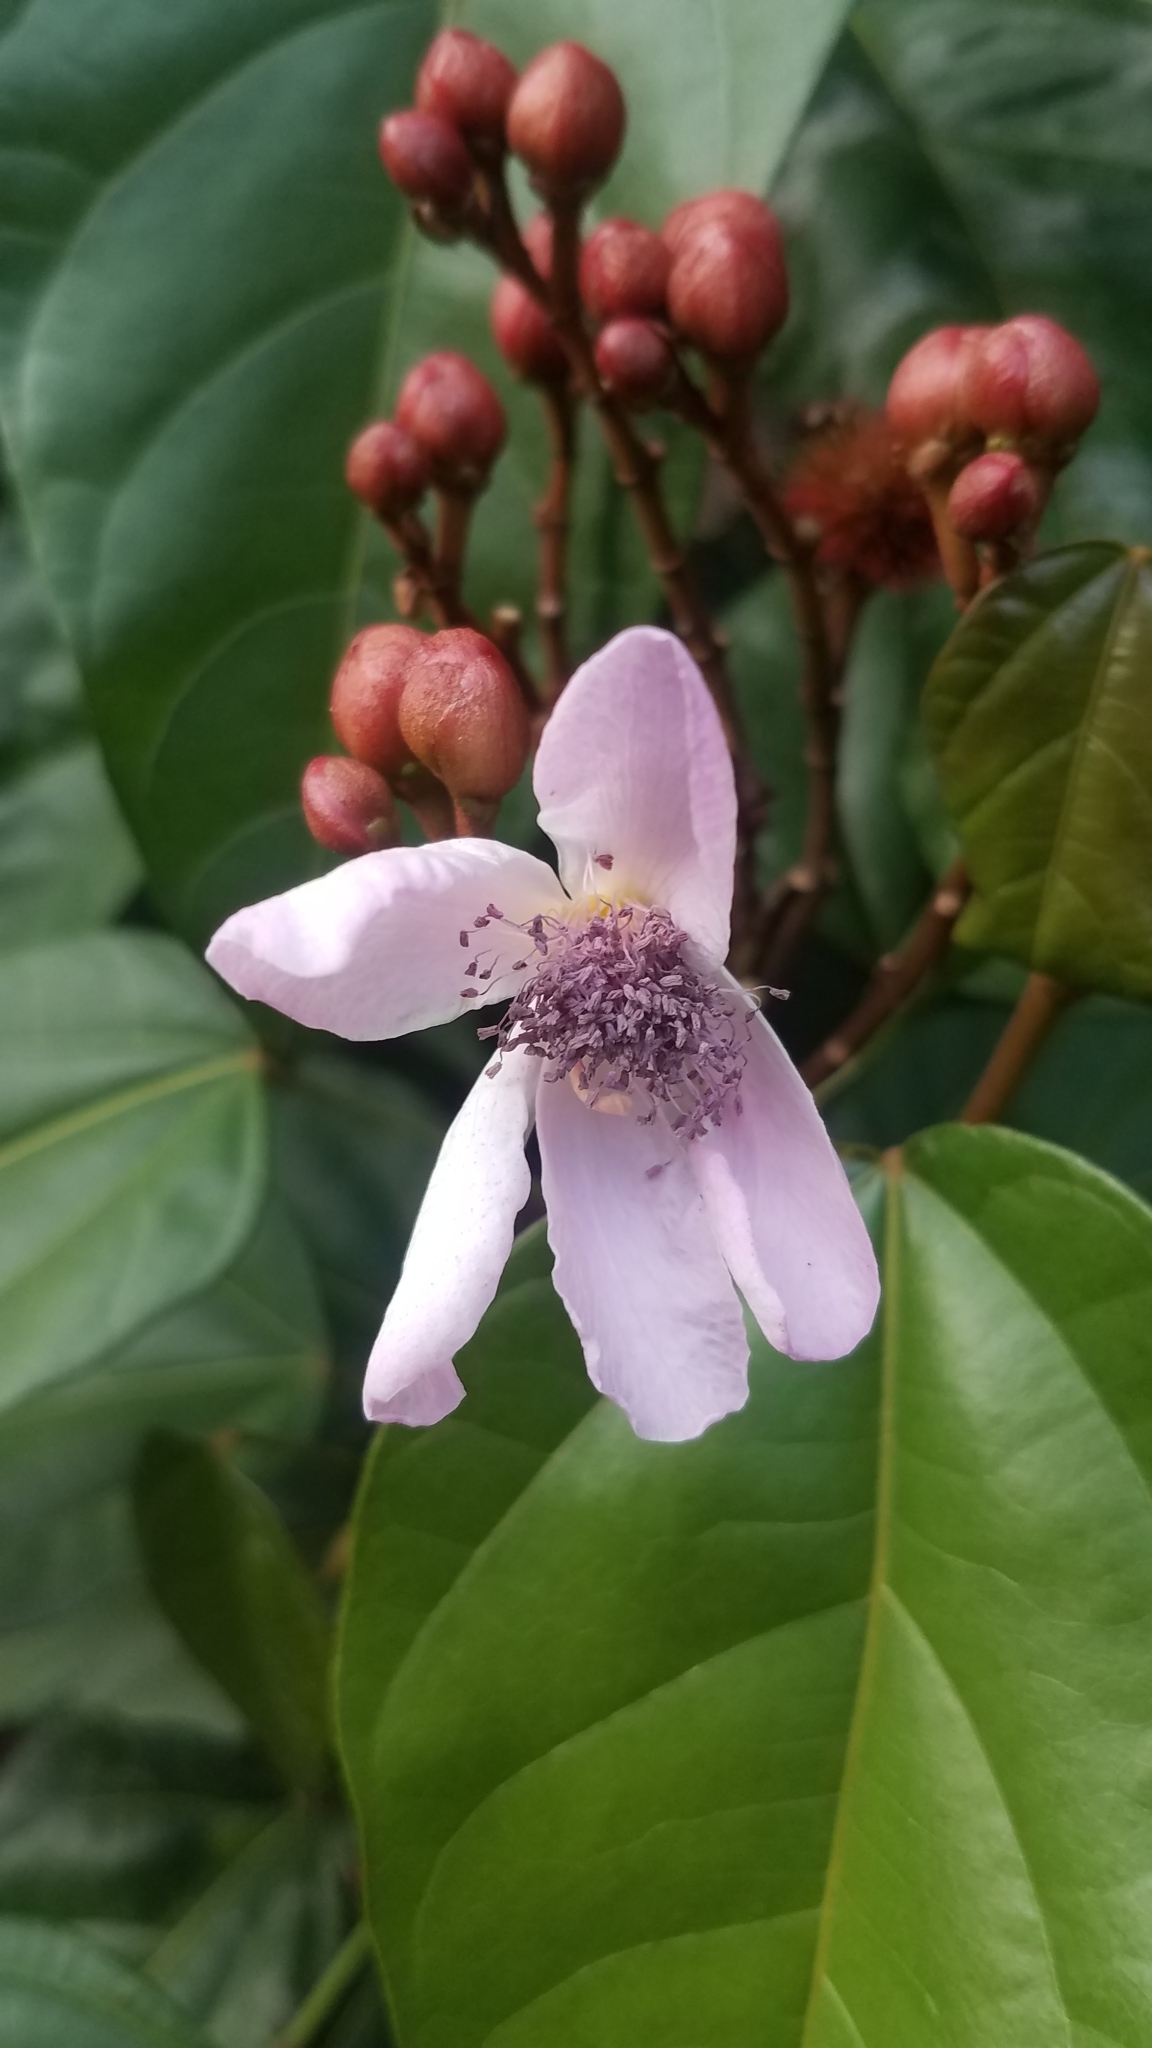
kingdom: Plantae
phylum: Tracheophyta
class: Magnoliopsida
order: Malvales
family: Bixaceae
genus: Bixa
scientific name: Bixa orellana
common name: Lipsticktree
